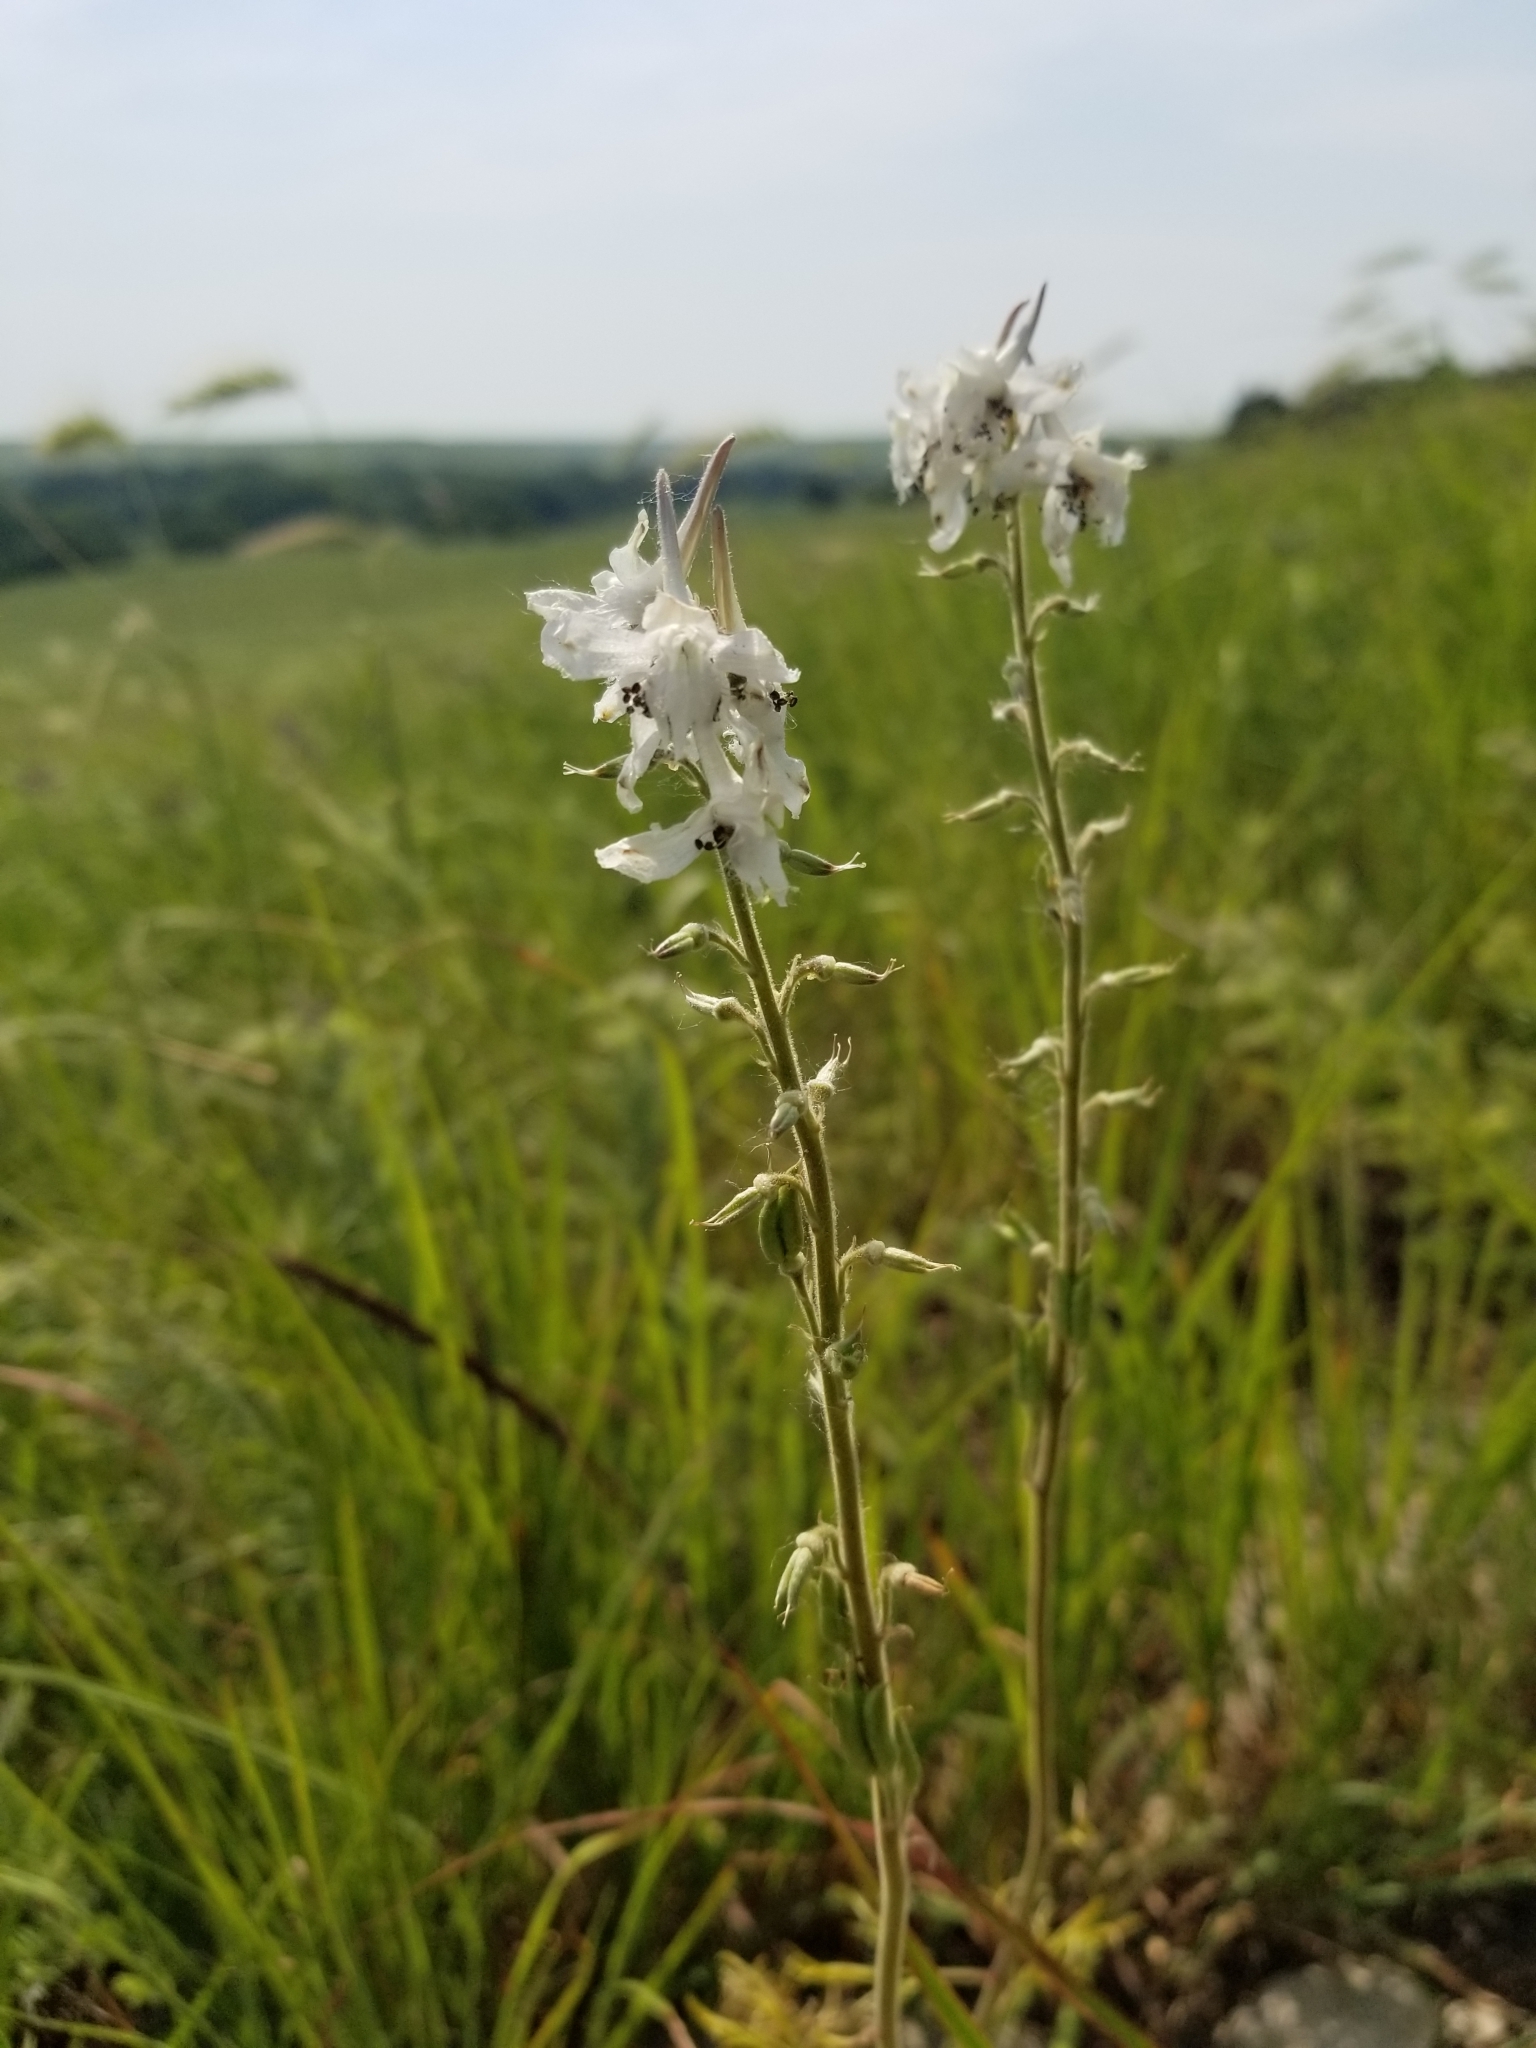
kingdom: Plantae
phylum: Tracheophyta
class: Magnoliopsida
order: Ranunculales
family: Ranunculaceae
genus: Delphinium
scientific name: Delphinium carolinianum
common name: Carolina larkspur
